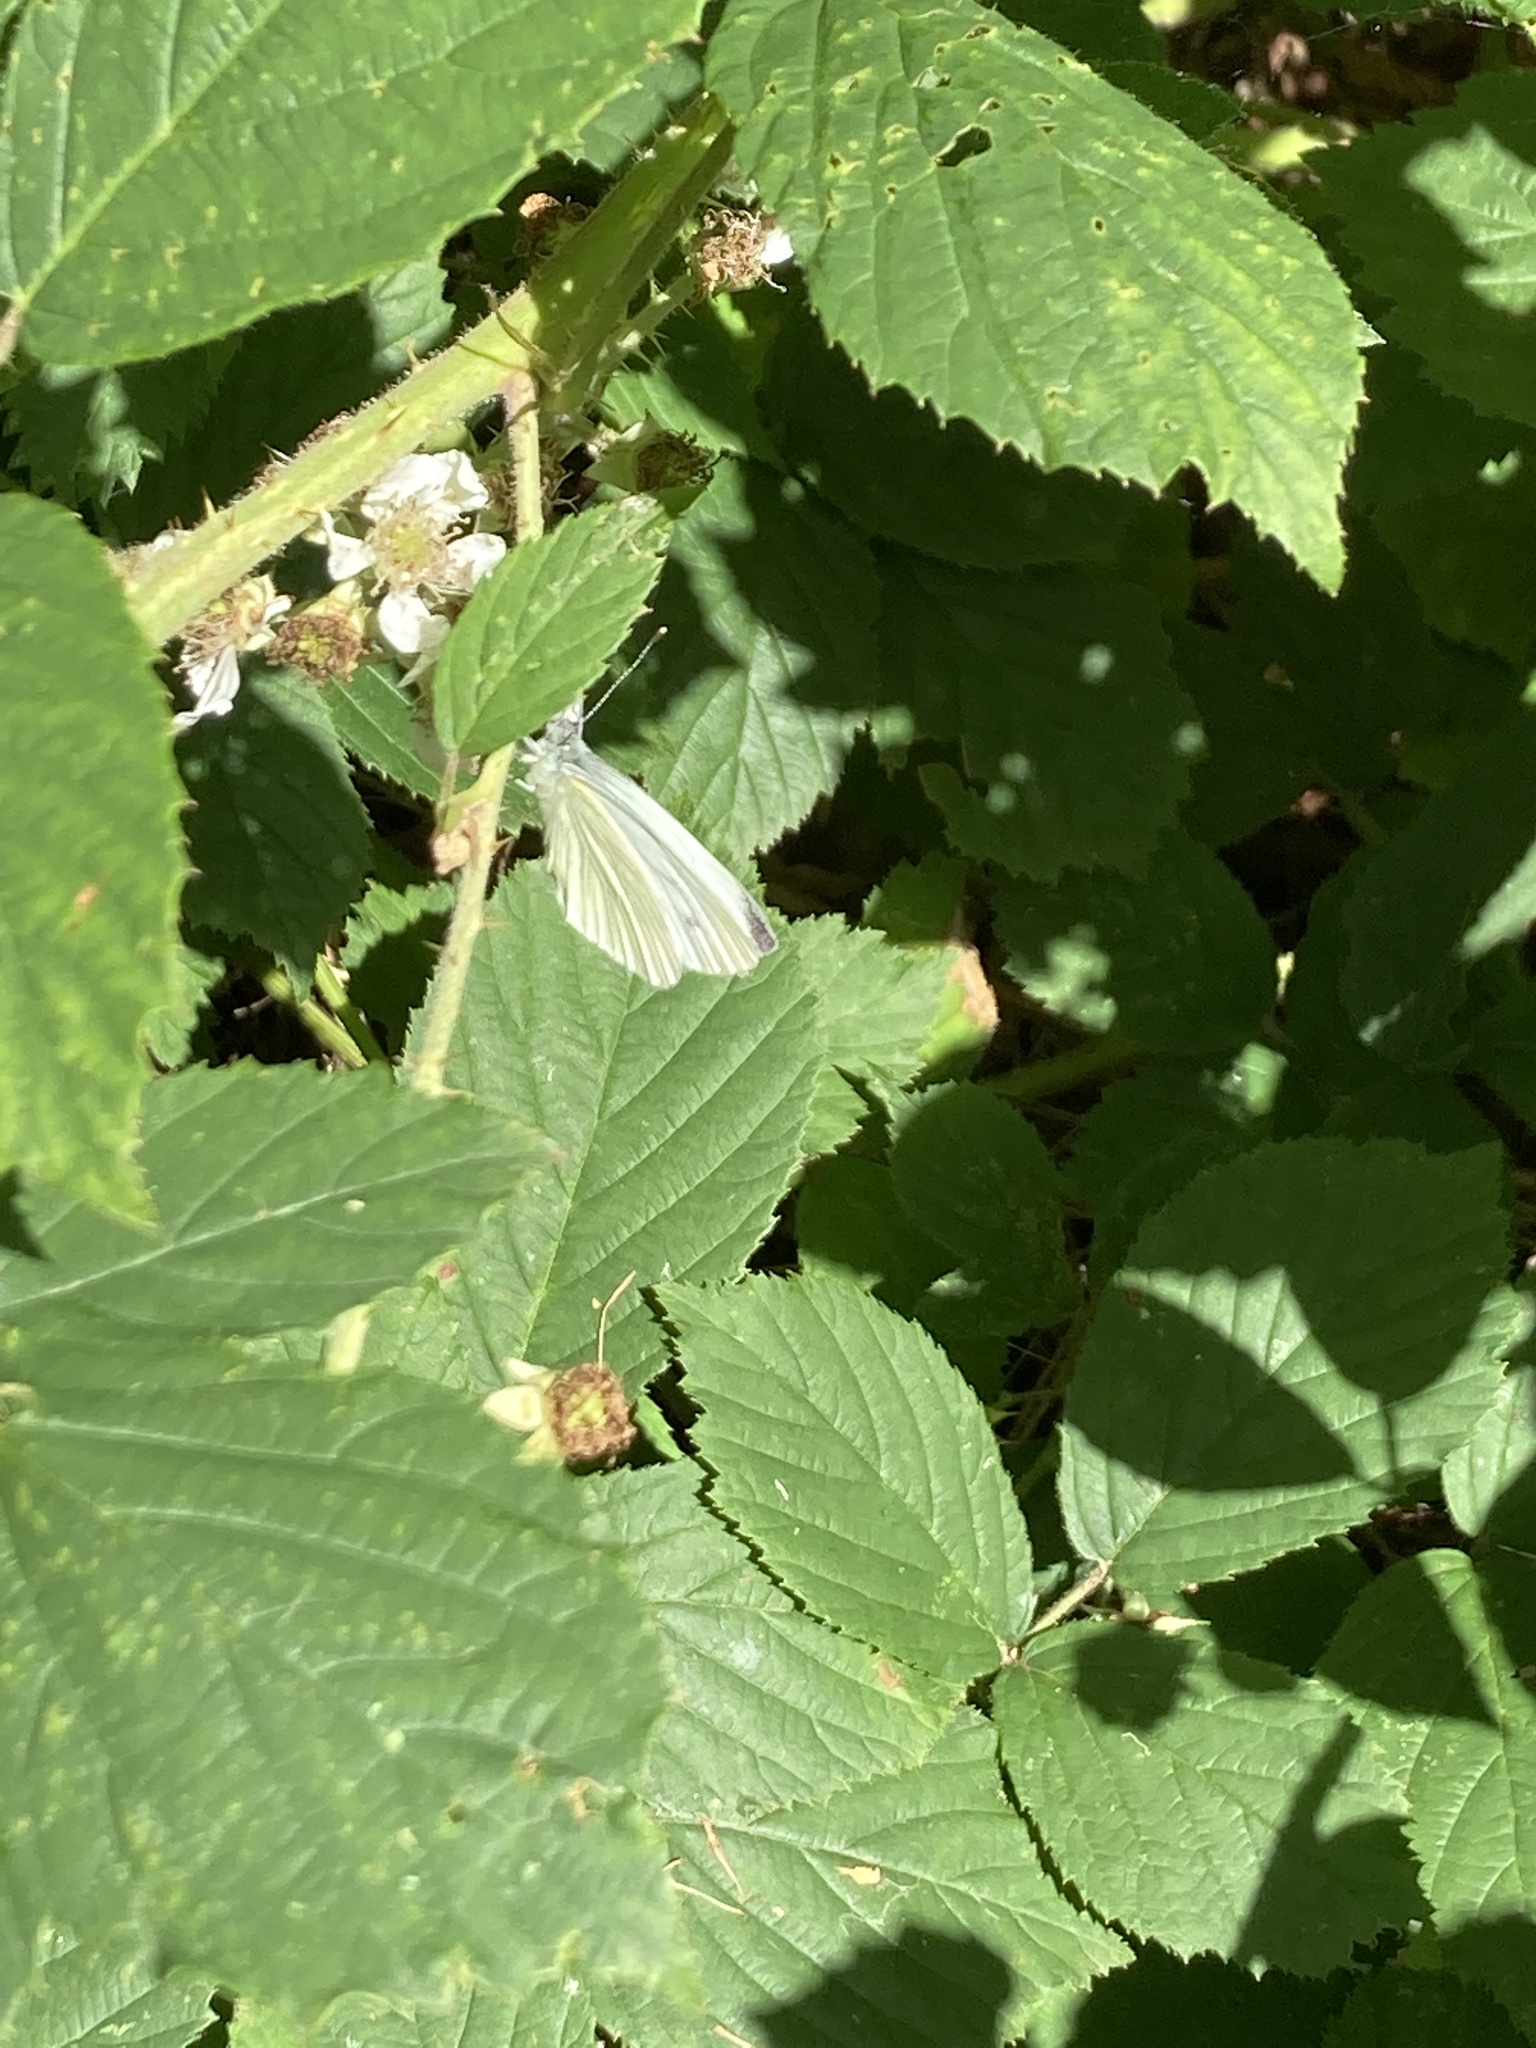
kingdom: Animalia
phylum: Arthropoda
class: Insecta
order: Lepidoptera
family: Pieridae
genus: Pieris
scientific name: Pieris napi
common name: Green-veined white
